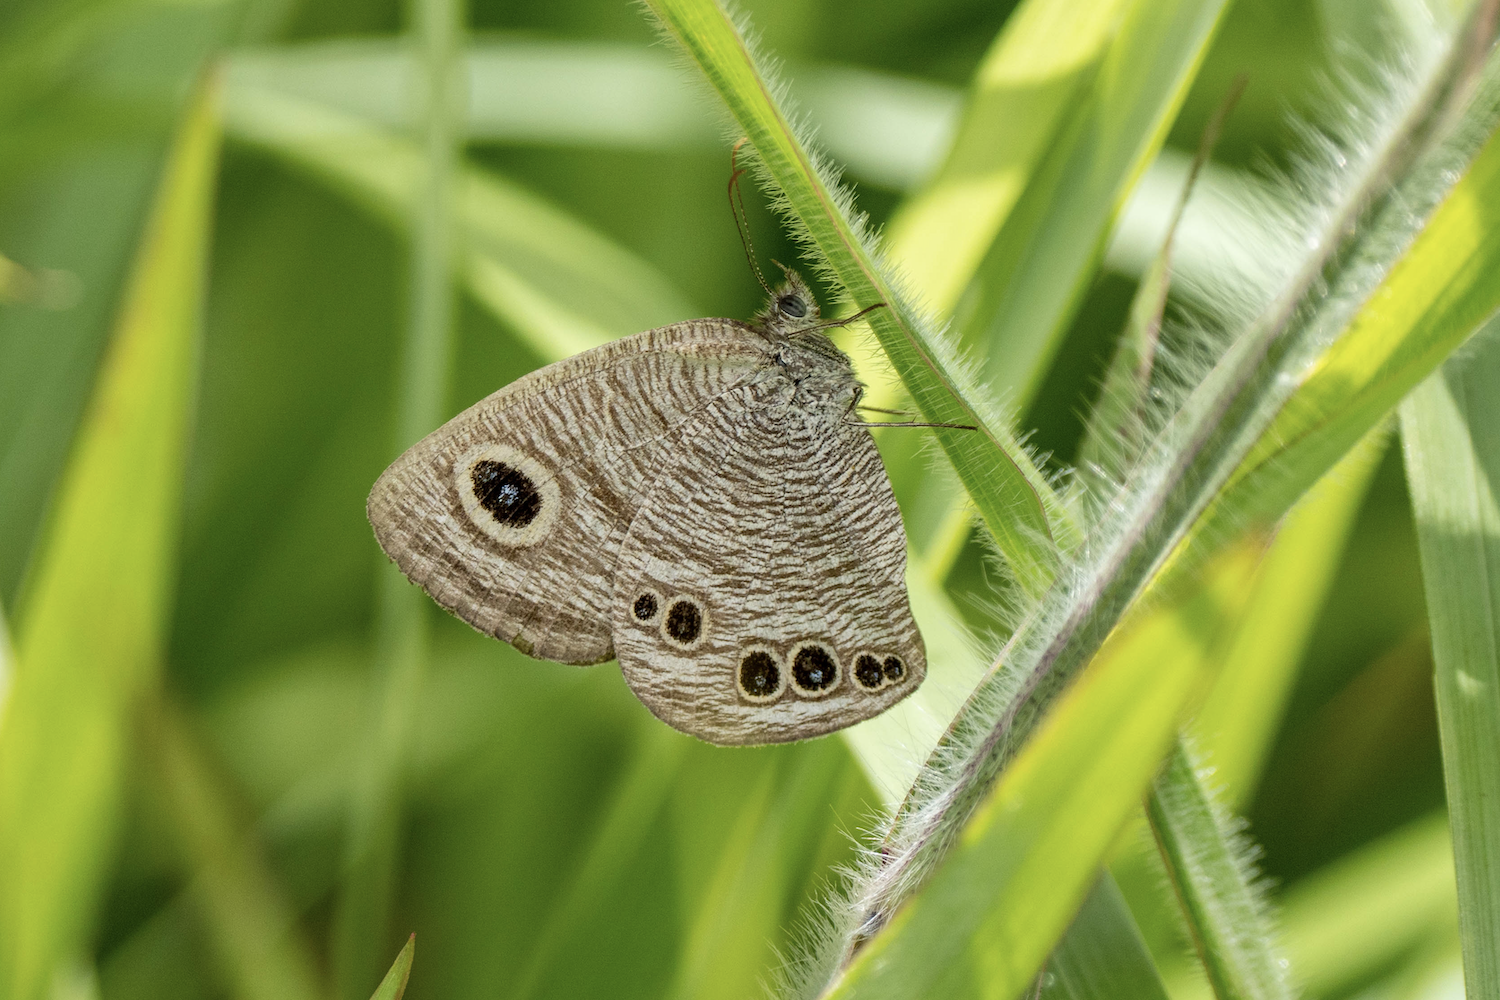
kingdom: Animalia
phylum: Arthropoda
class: Insecta
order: Lepidoptera
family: Nymphalidae
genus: Ypthima
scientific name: Ypthima lisandra
